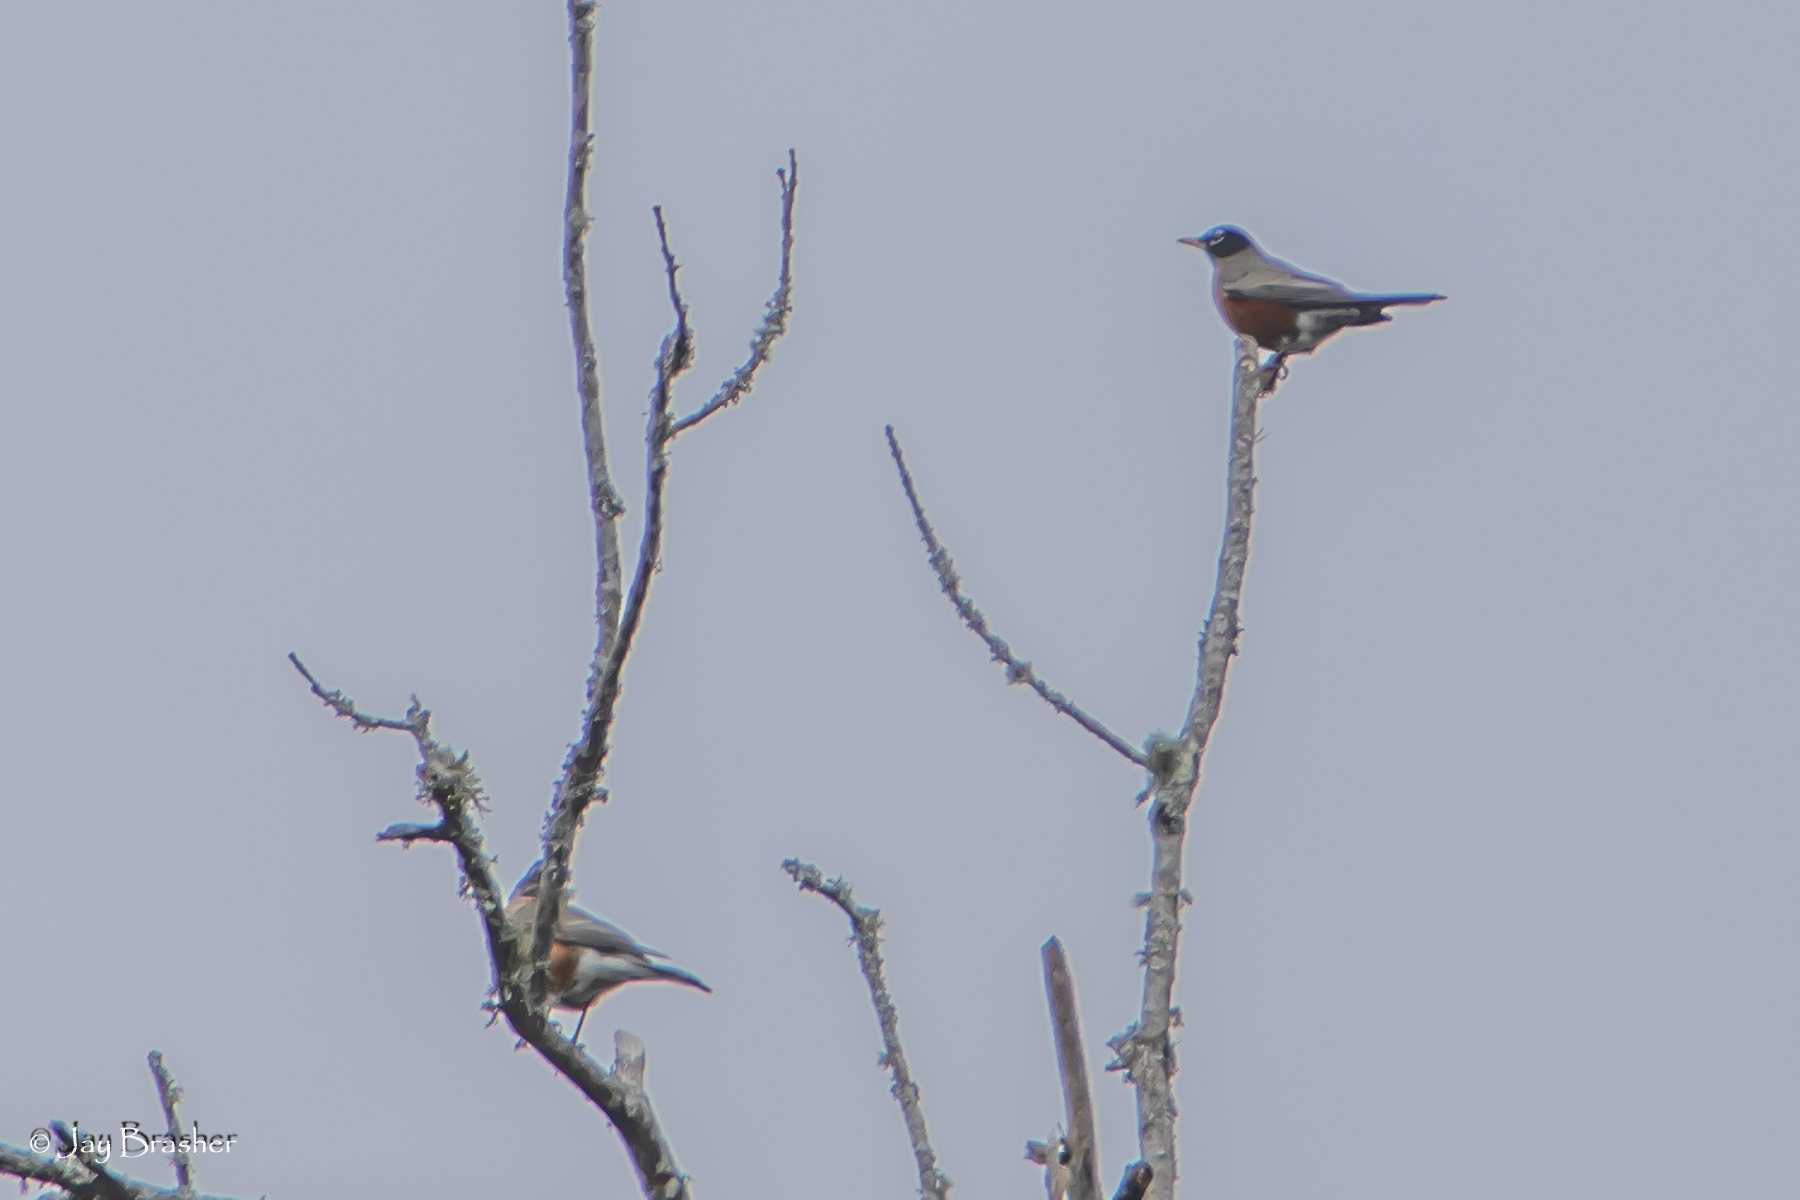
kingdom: Animalia
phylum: Chordata
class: Aves
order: Passeriformes
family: Turdidae
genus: Turdus
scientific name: Turdus migratorius
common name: American robin
